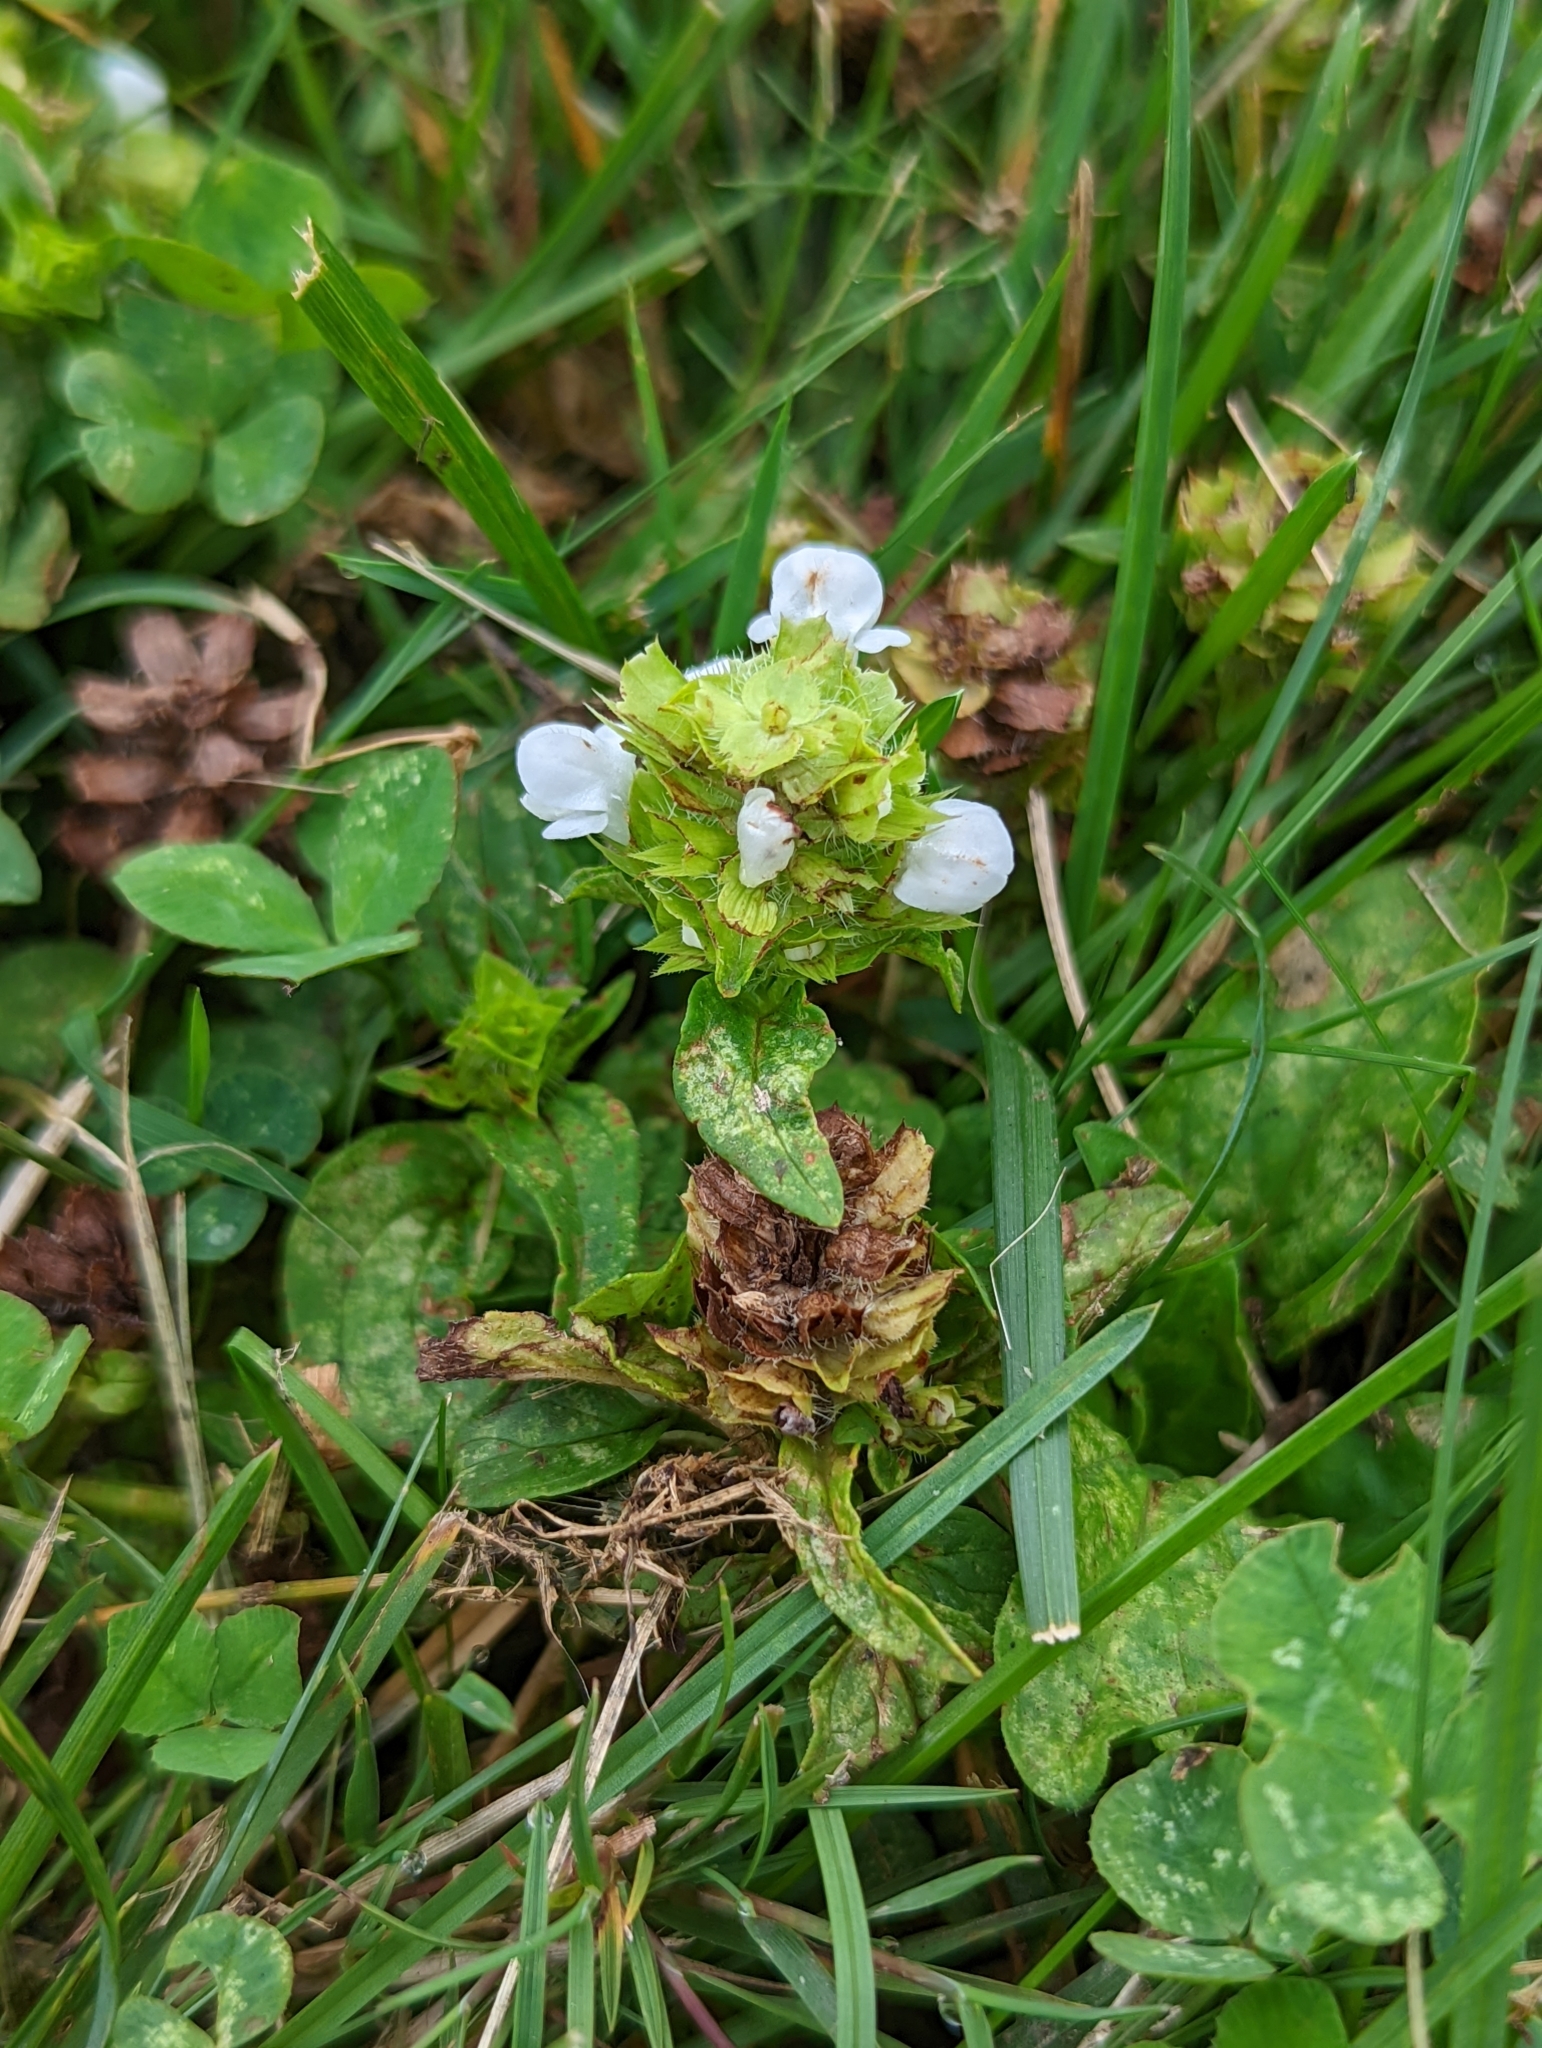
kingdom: Plantae
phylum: Tracheophyta
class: Magnoliopsida
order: Lamiales
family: Lamiaceae
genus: Prunella
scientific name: Prunella vulgaris
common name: Heal-all
